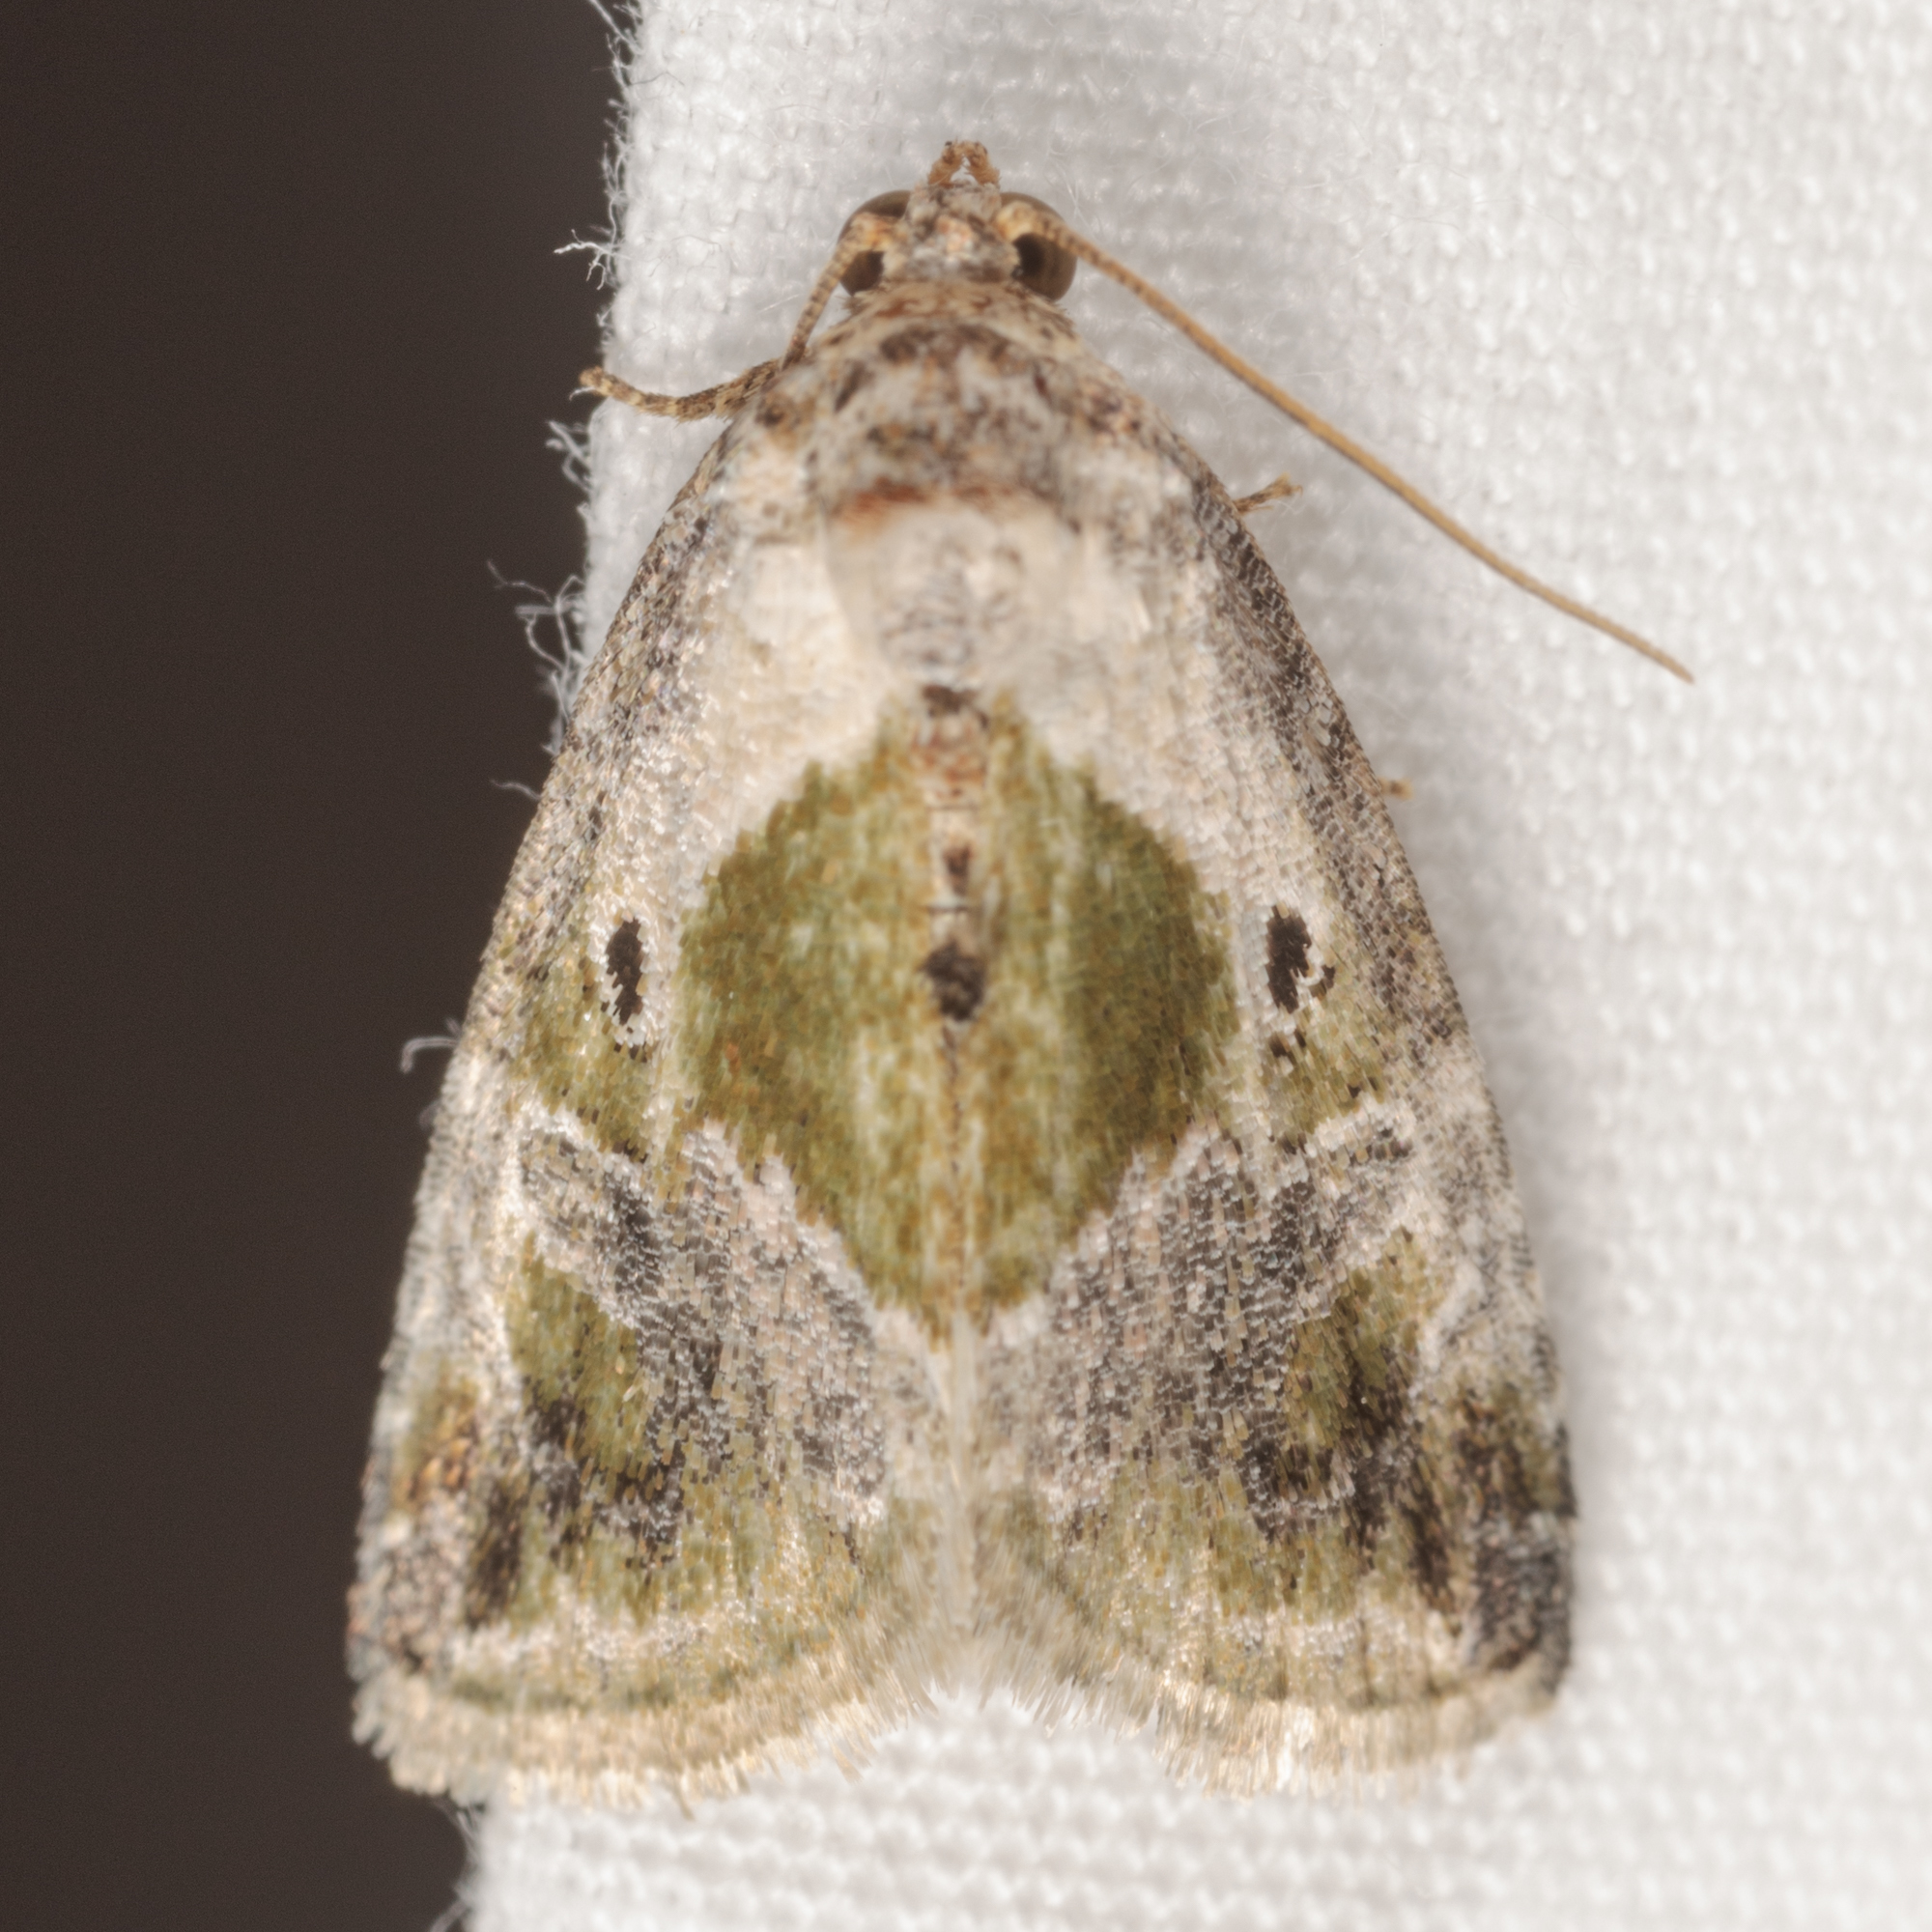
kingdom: Animalia
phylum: Arthropoda
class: Insecta
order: Lepidoptera
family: Noctuidae
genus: Maliattha
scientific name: Maliattha synochitis
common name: Black-dotted glyph
